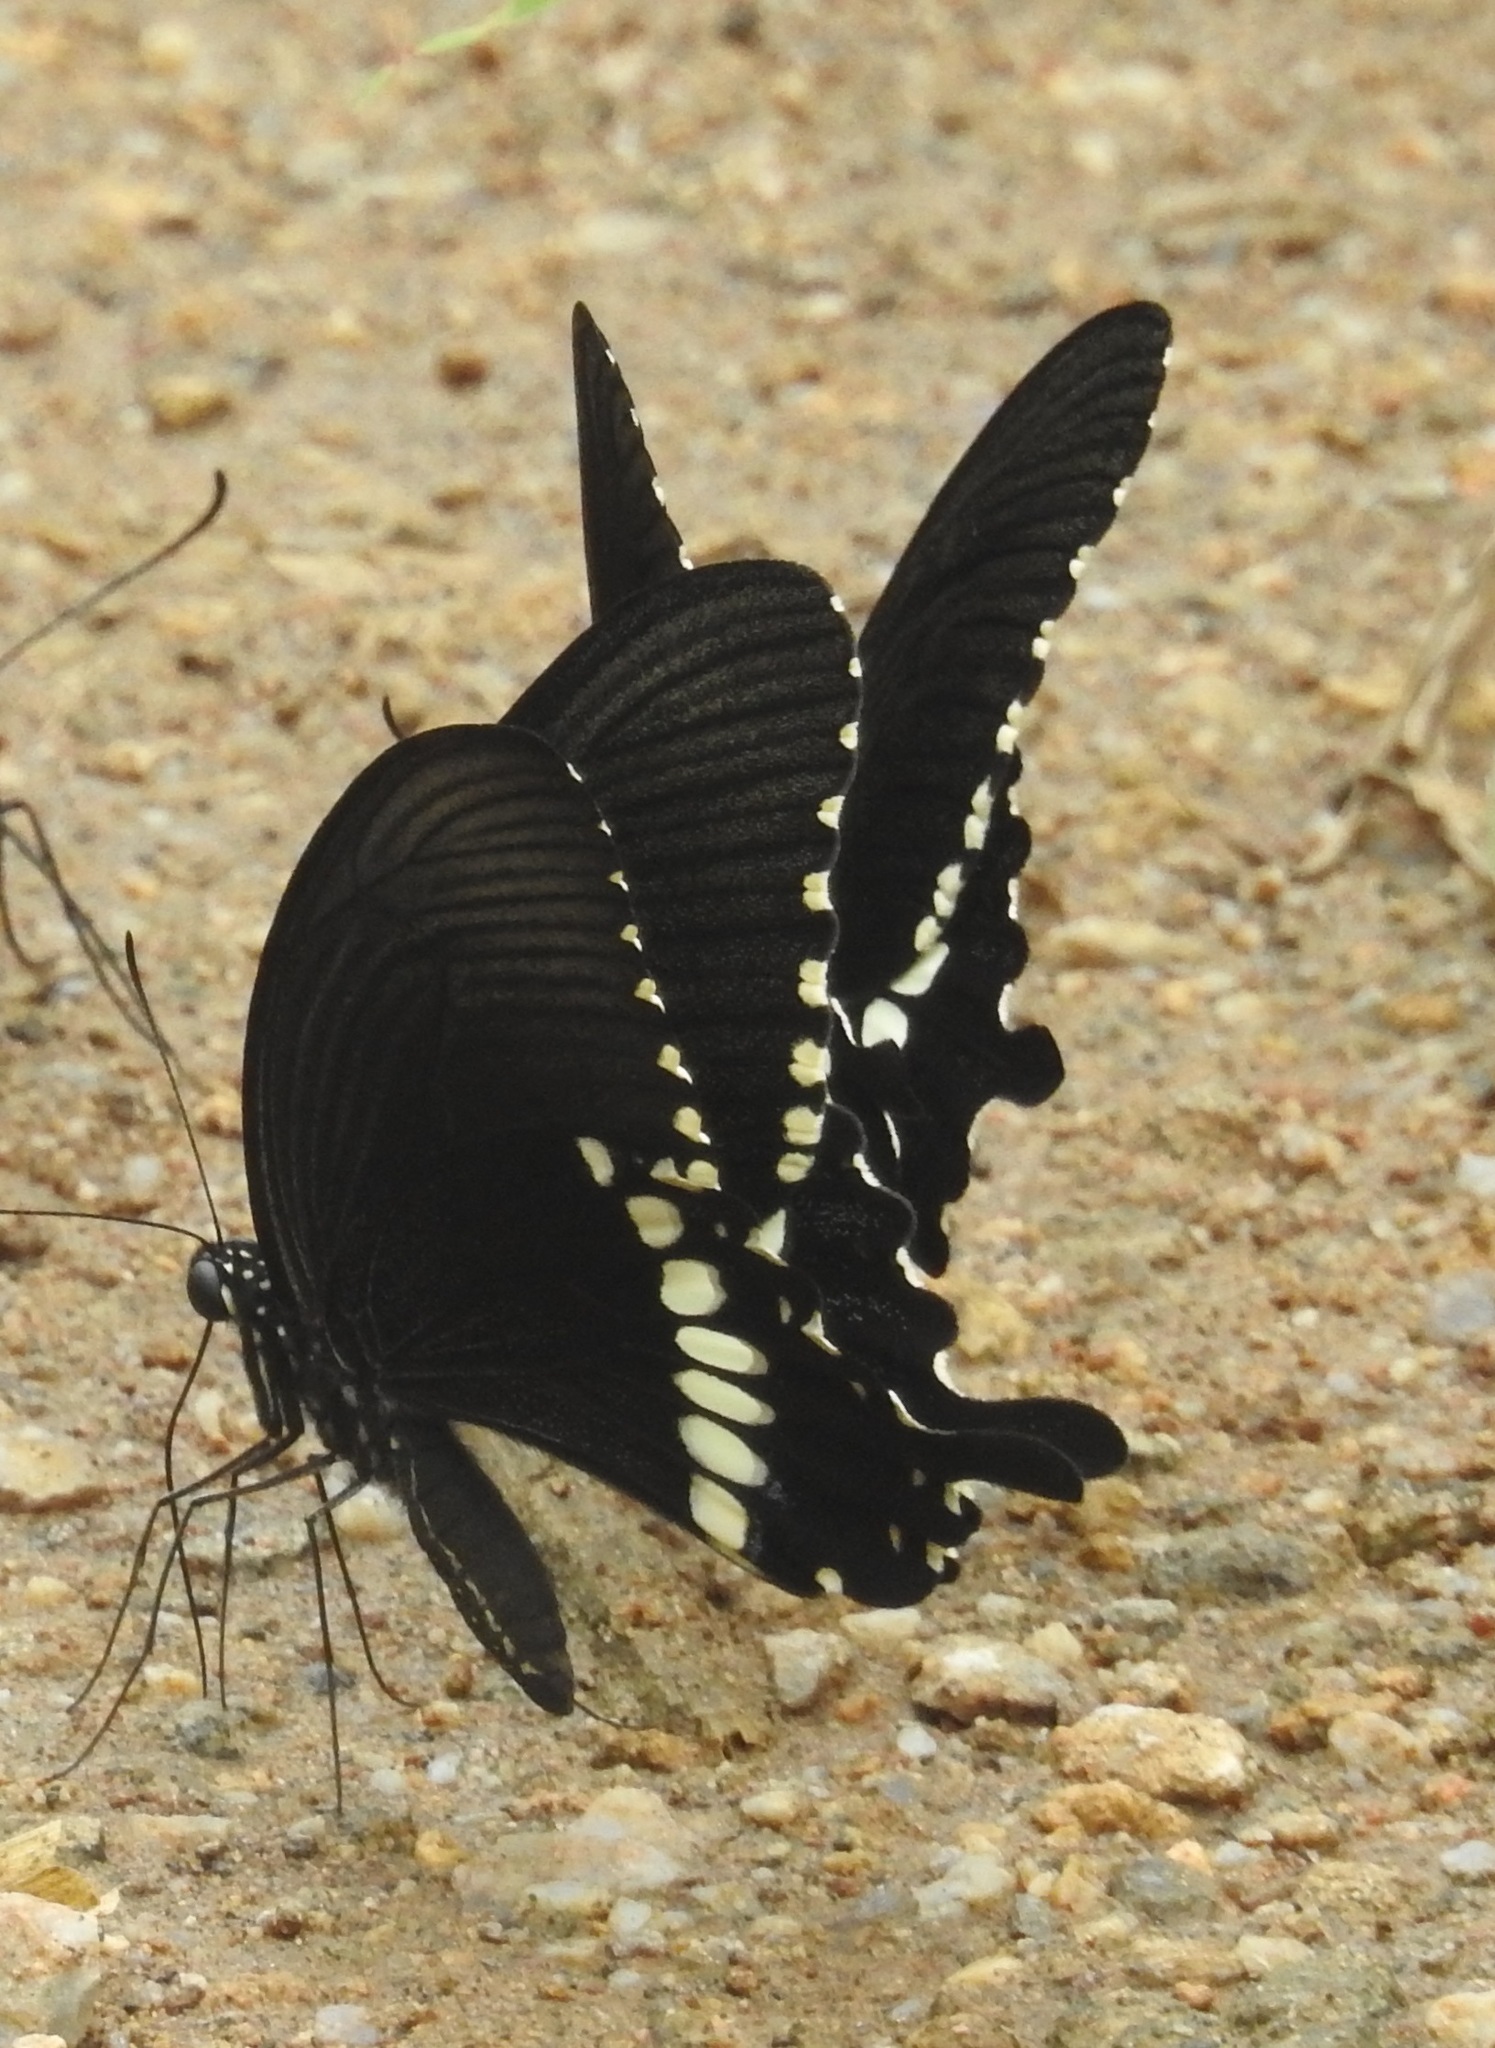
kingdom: Animalia
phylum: Arthropoda
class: Insecta
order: Lepidoptera
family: Papilionidae
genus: Papilio
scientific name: Papilio polytes
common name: Common mormon
